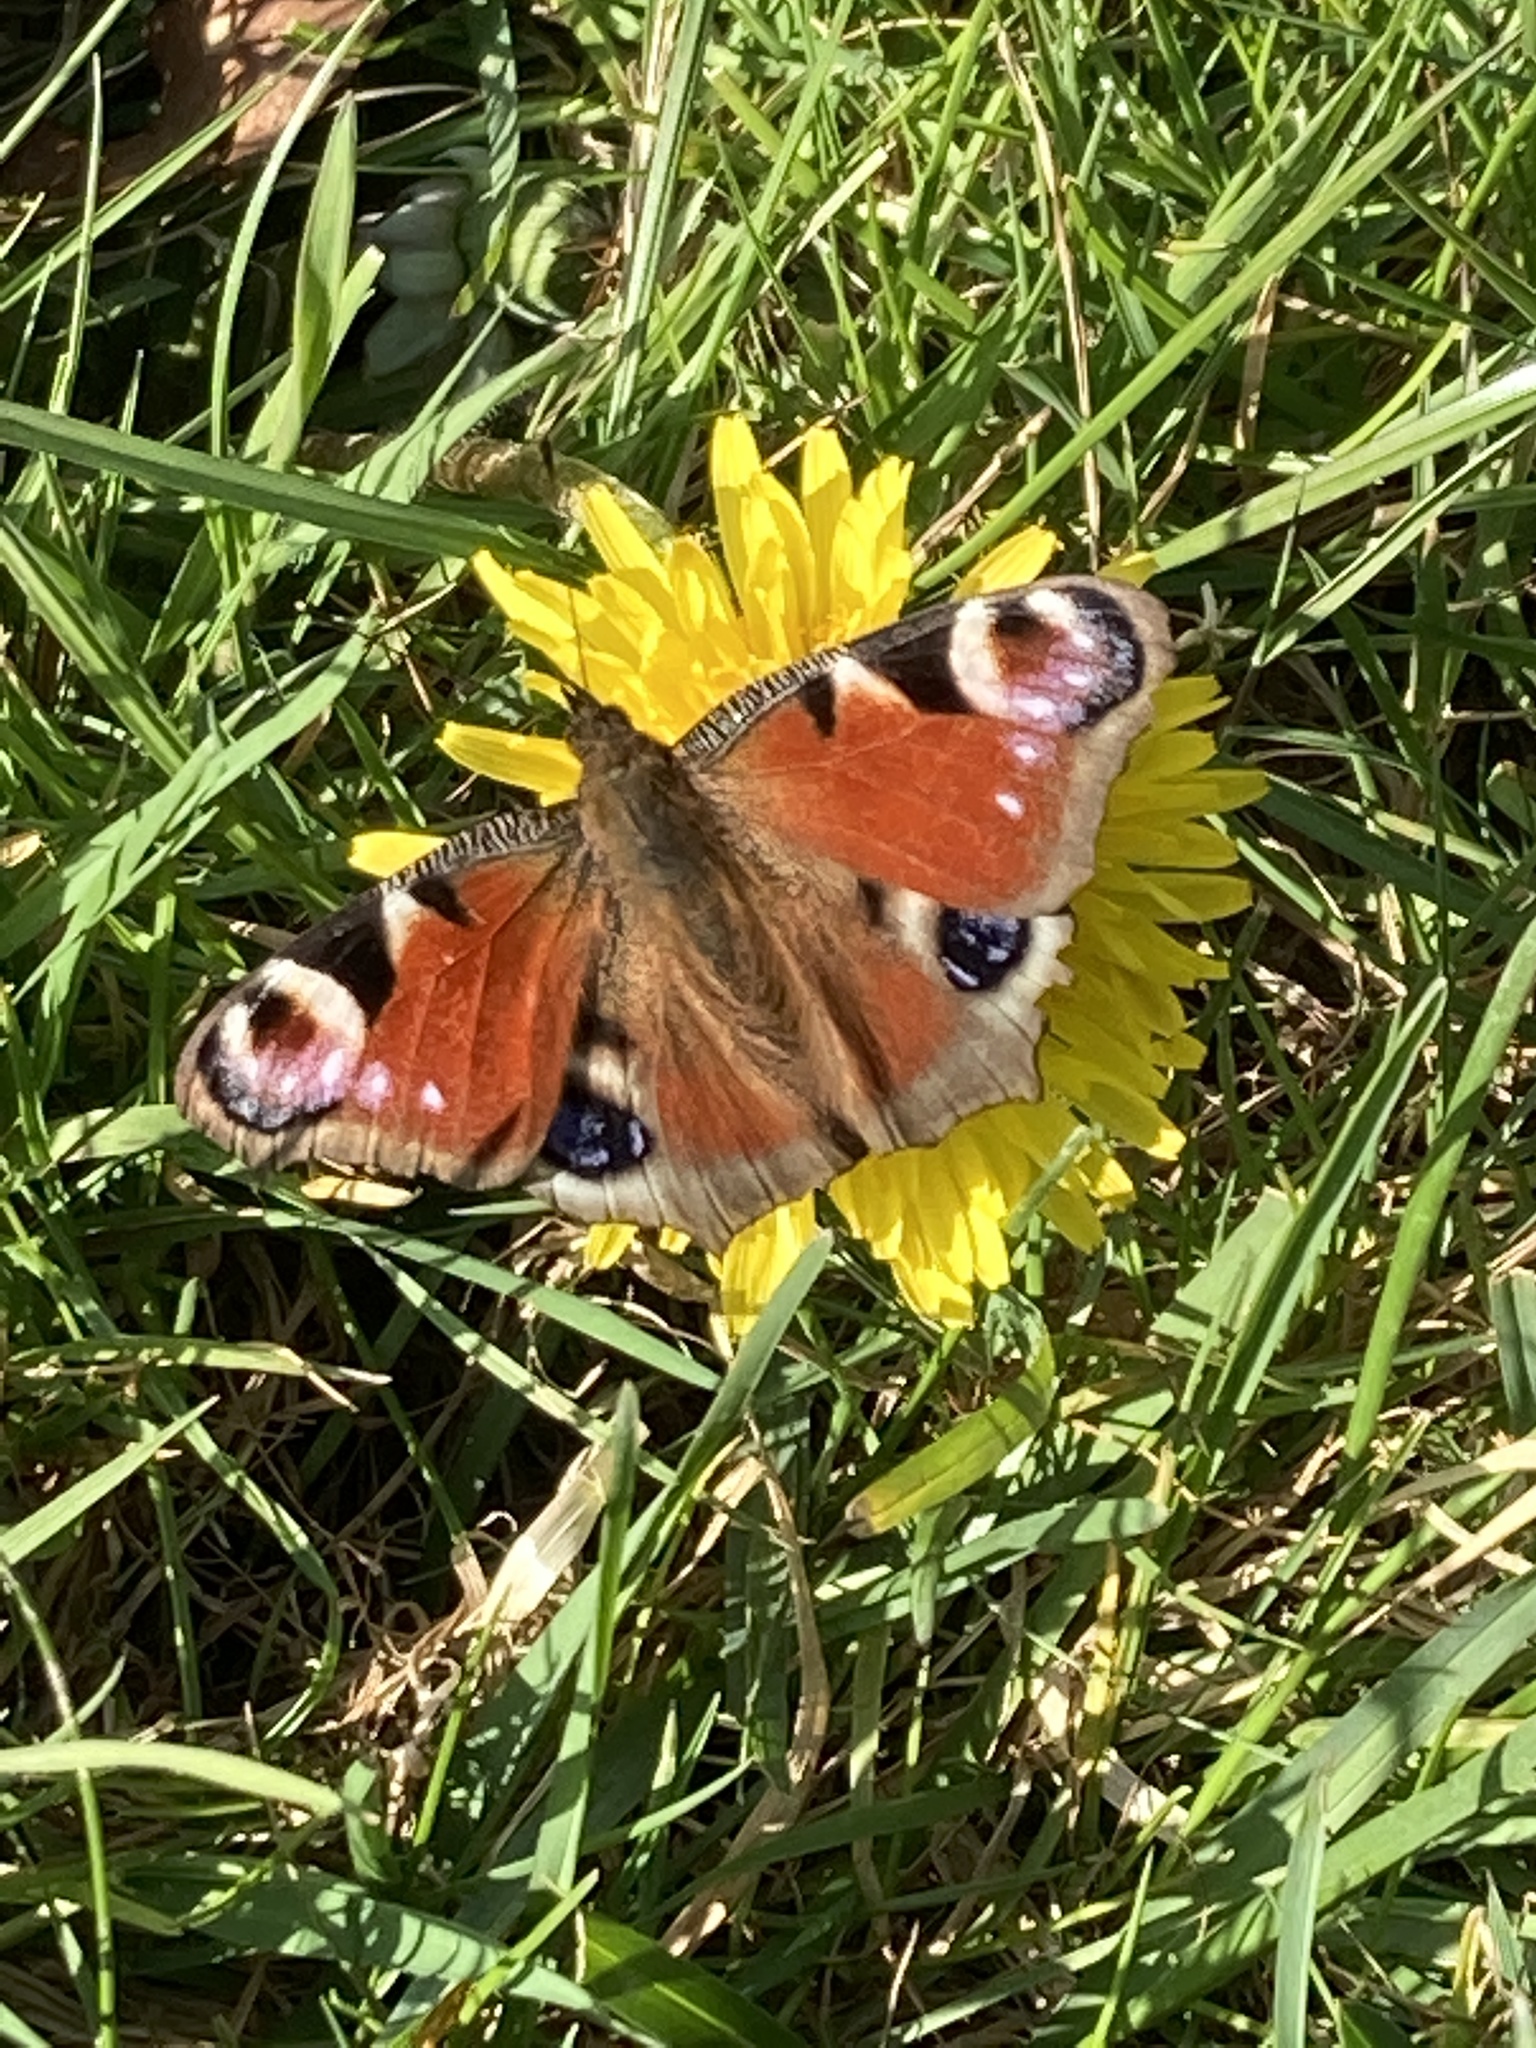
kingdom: Animalia
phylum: Arthropoda
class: Insecta
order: Lepidoptera
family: Nymphalidae
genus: Aglais
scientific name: Aglais io
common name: Peacock
